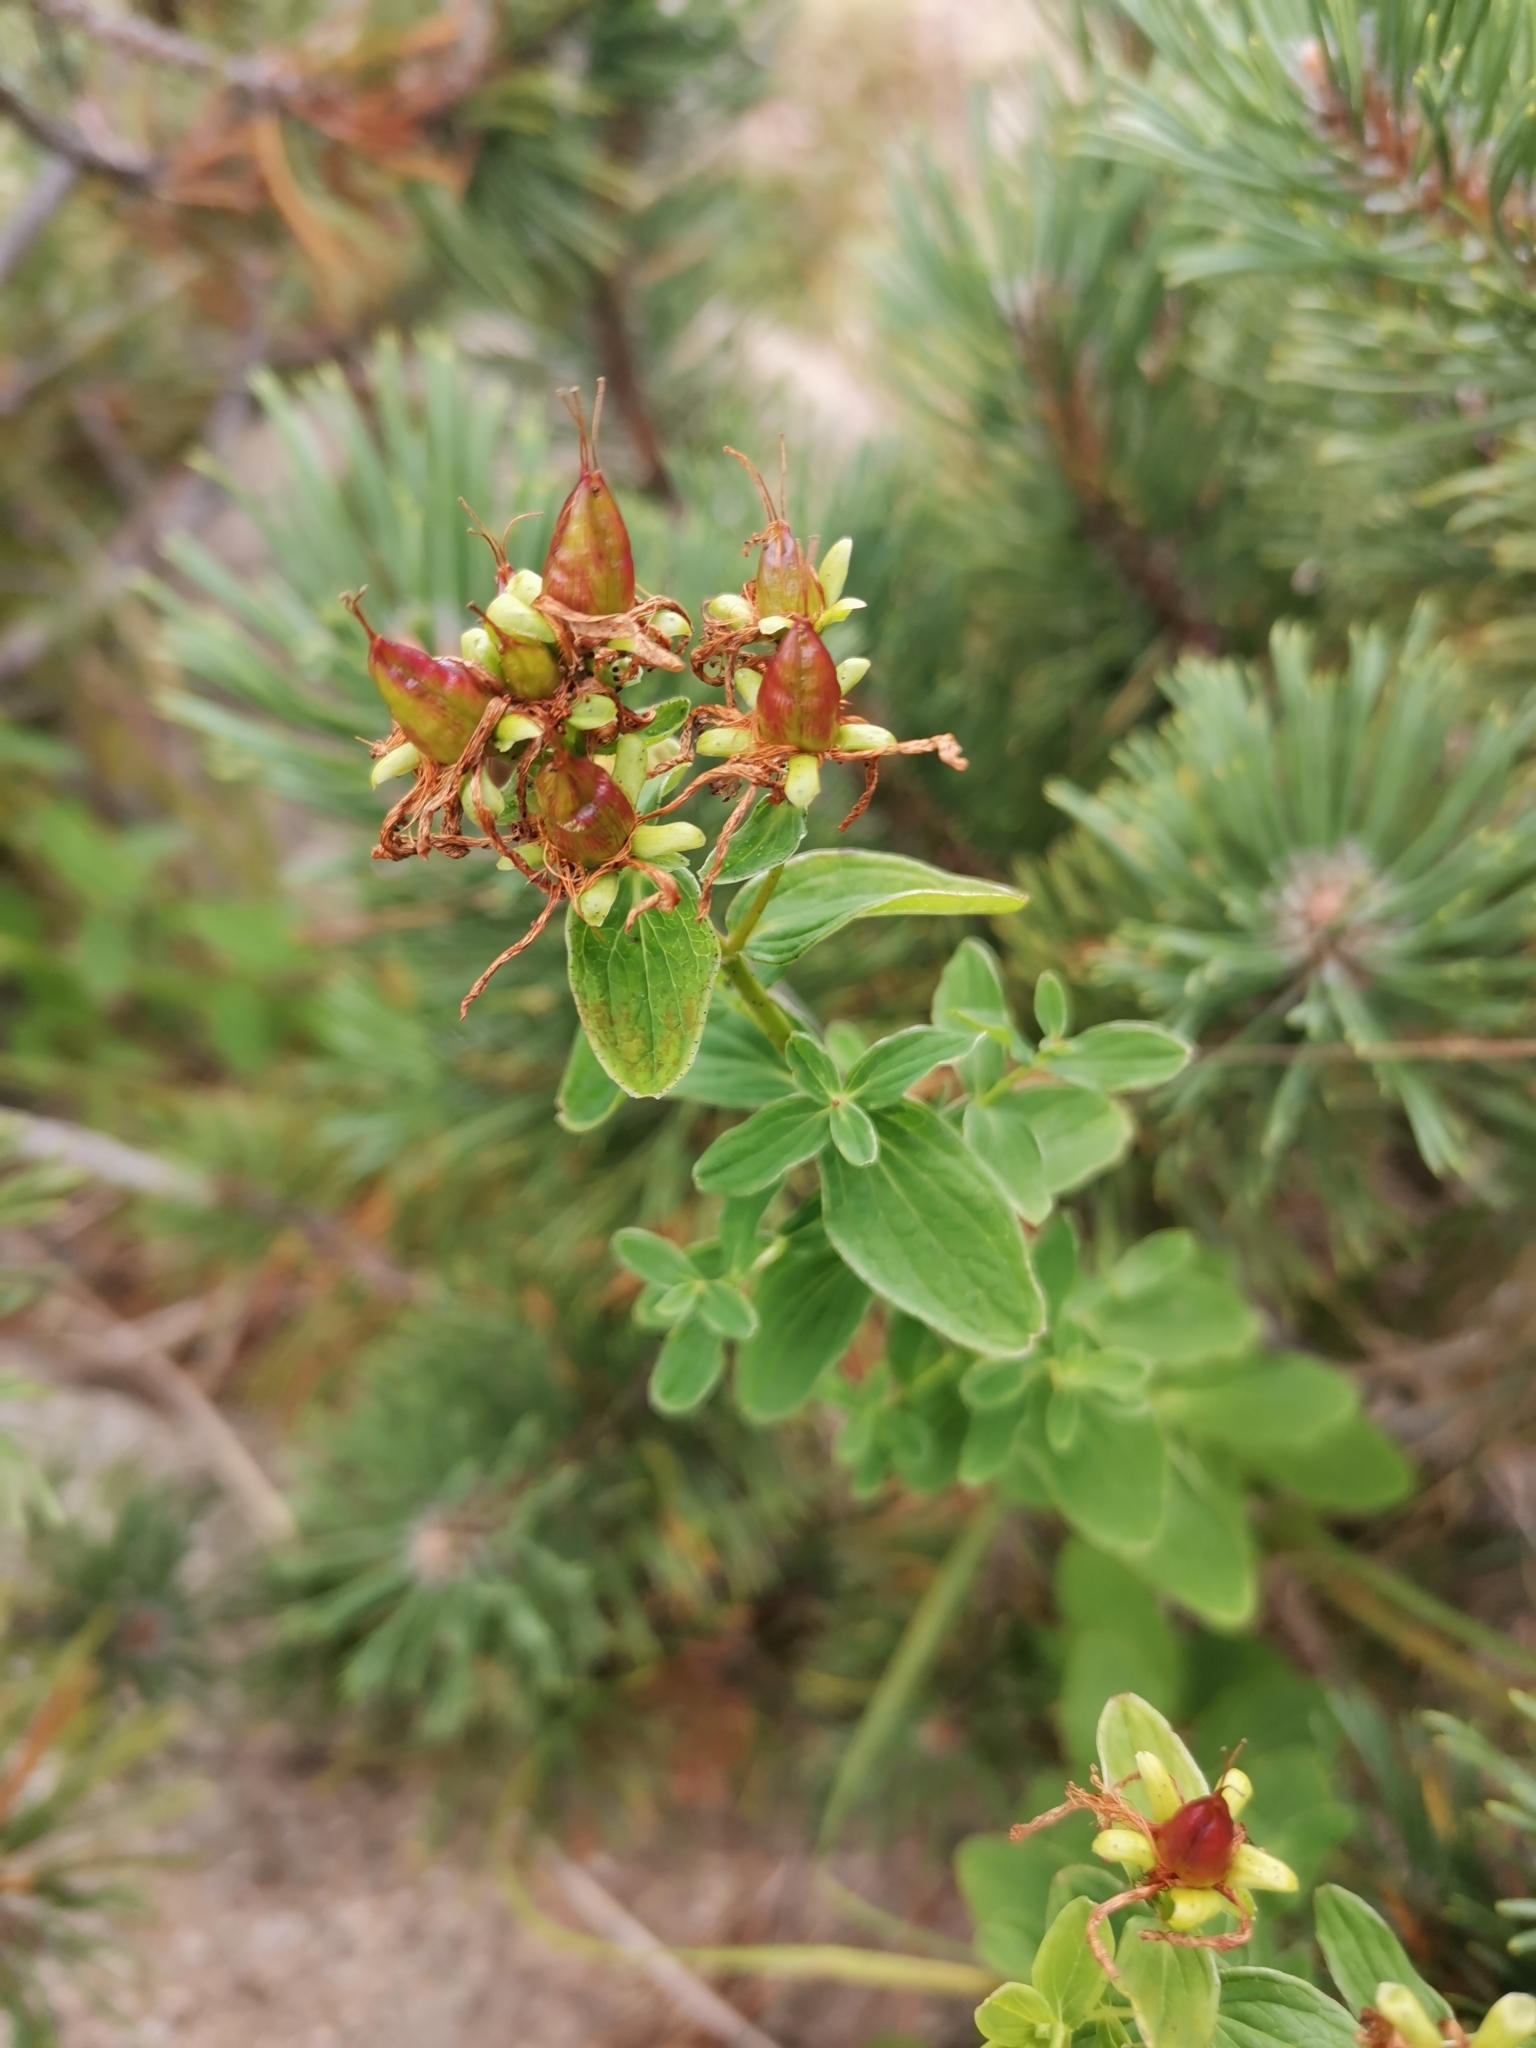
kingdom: Plantae
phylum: Tracheophyta
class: Magnoliopsida
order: Malpighiales
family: Hypericaceae
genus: Hypericum
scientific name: Hypericum maculatum
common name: Imperforate st. john's-wort
